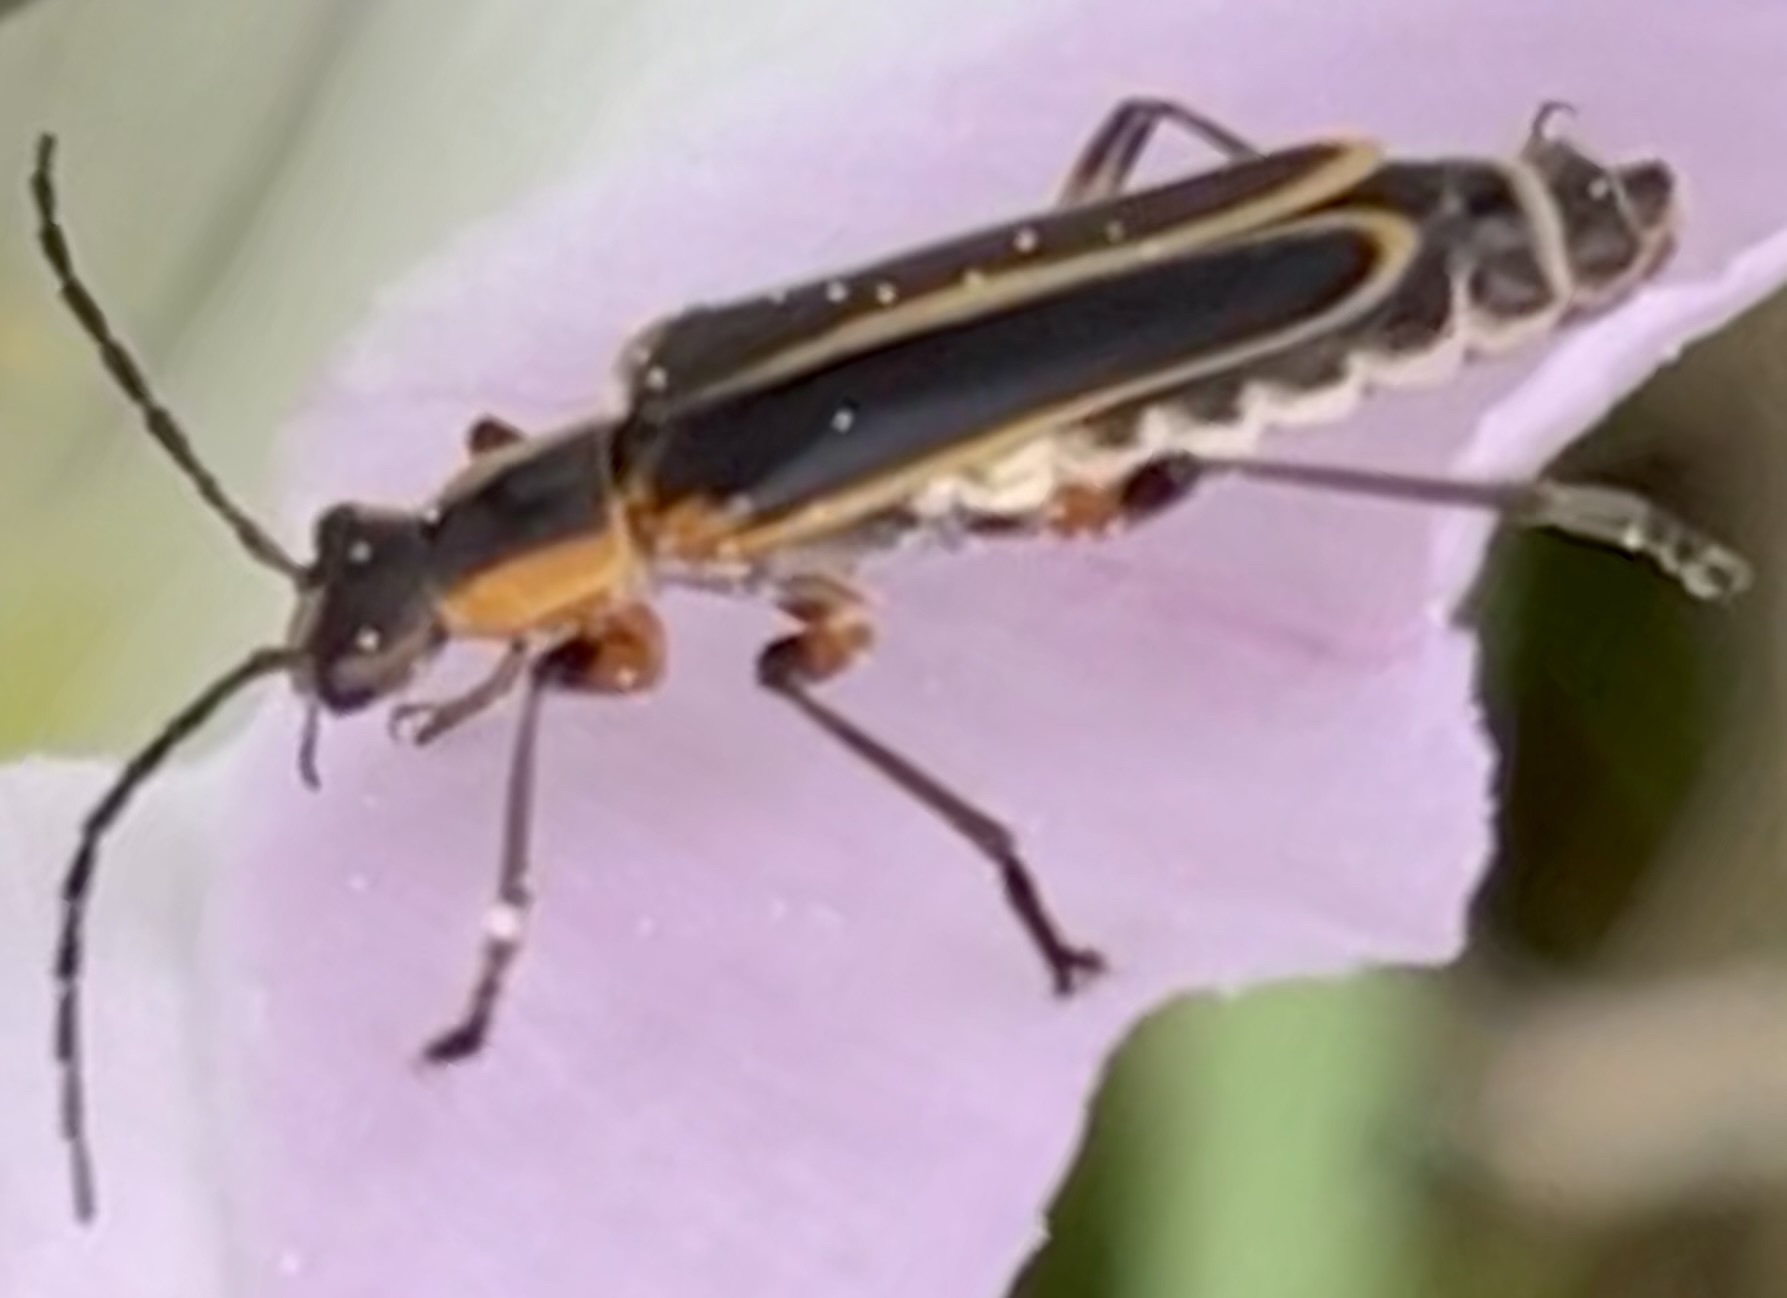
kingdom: Animalia
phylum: Arthropoda
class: Insecta
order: Coleoptera
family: Cantharidae
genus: Chauliognathus
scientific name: Chauliognathus marginatus
